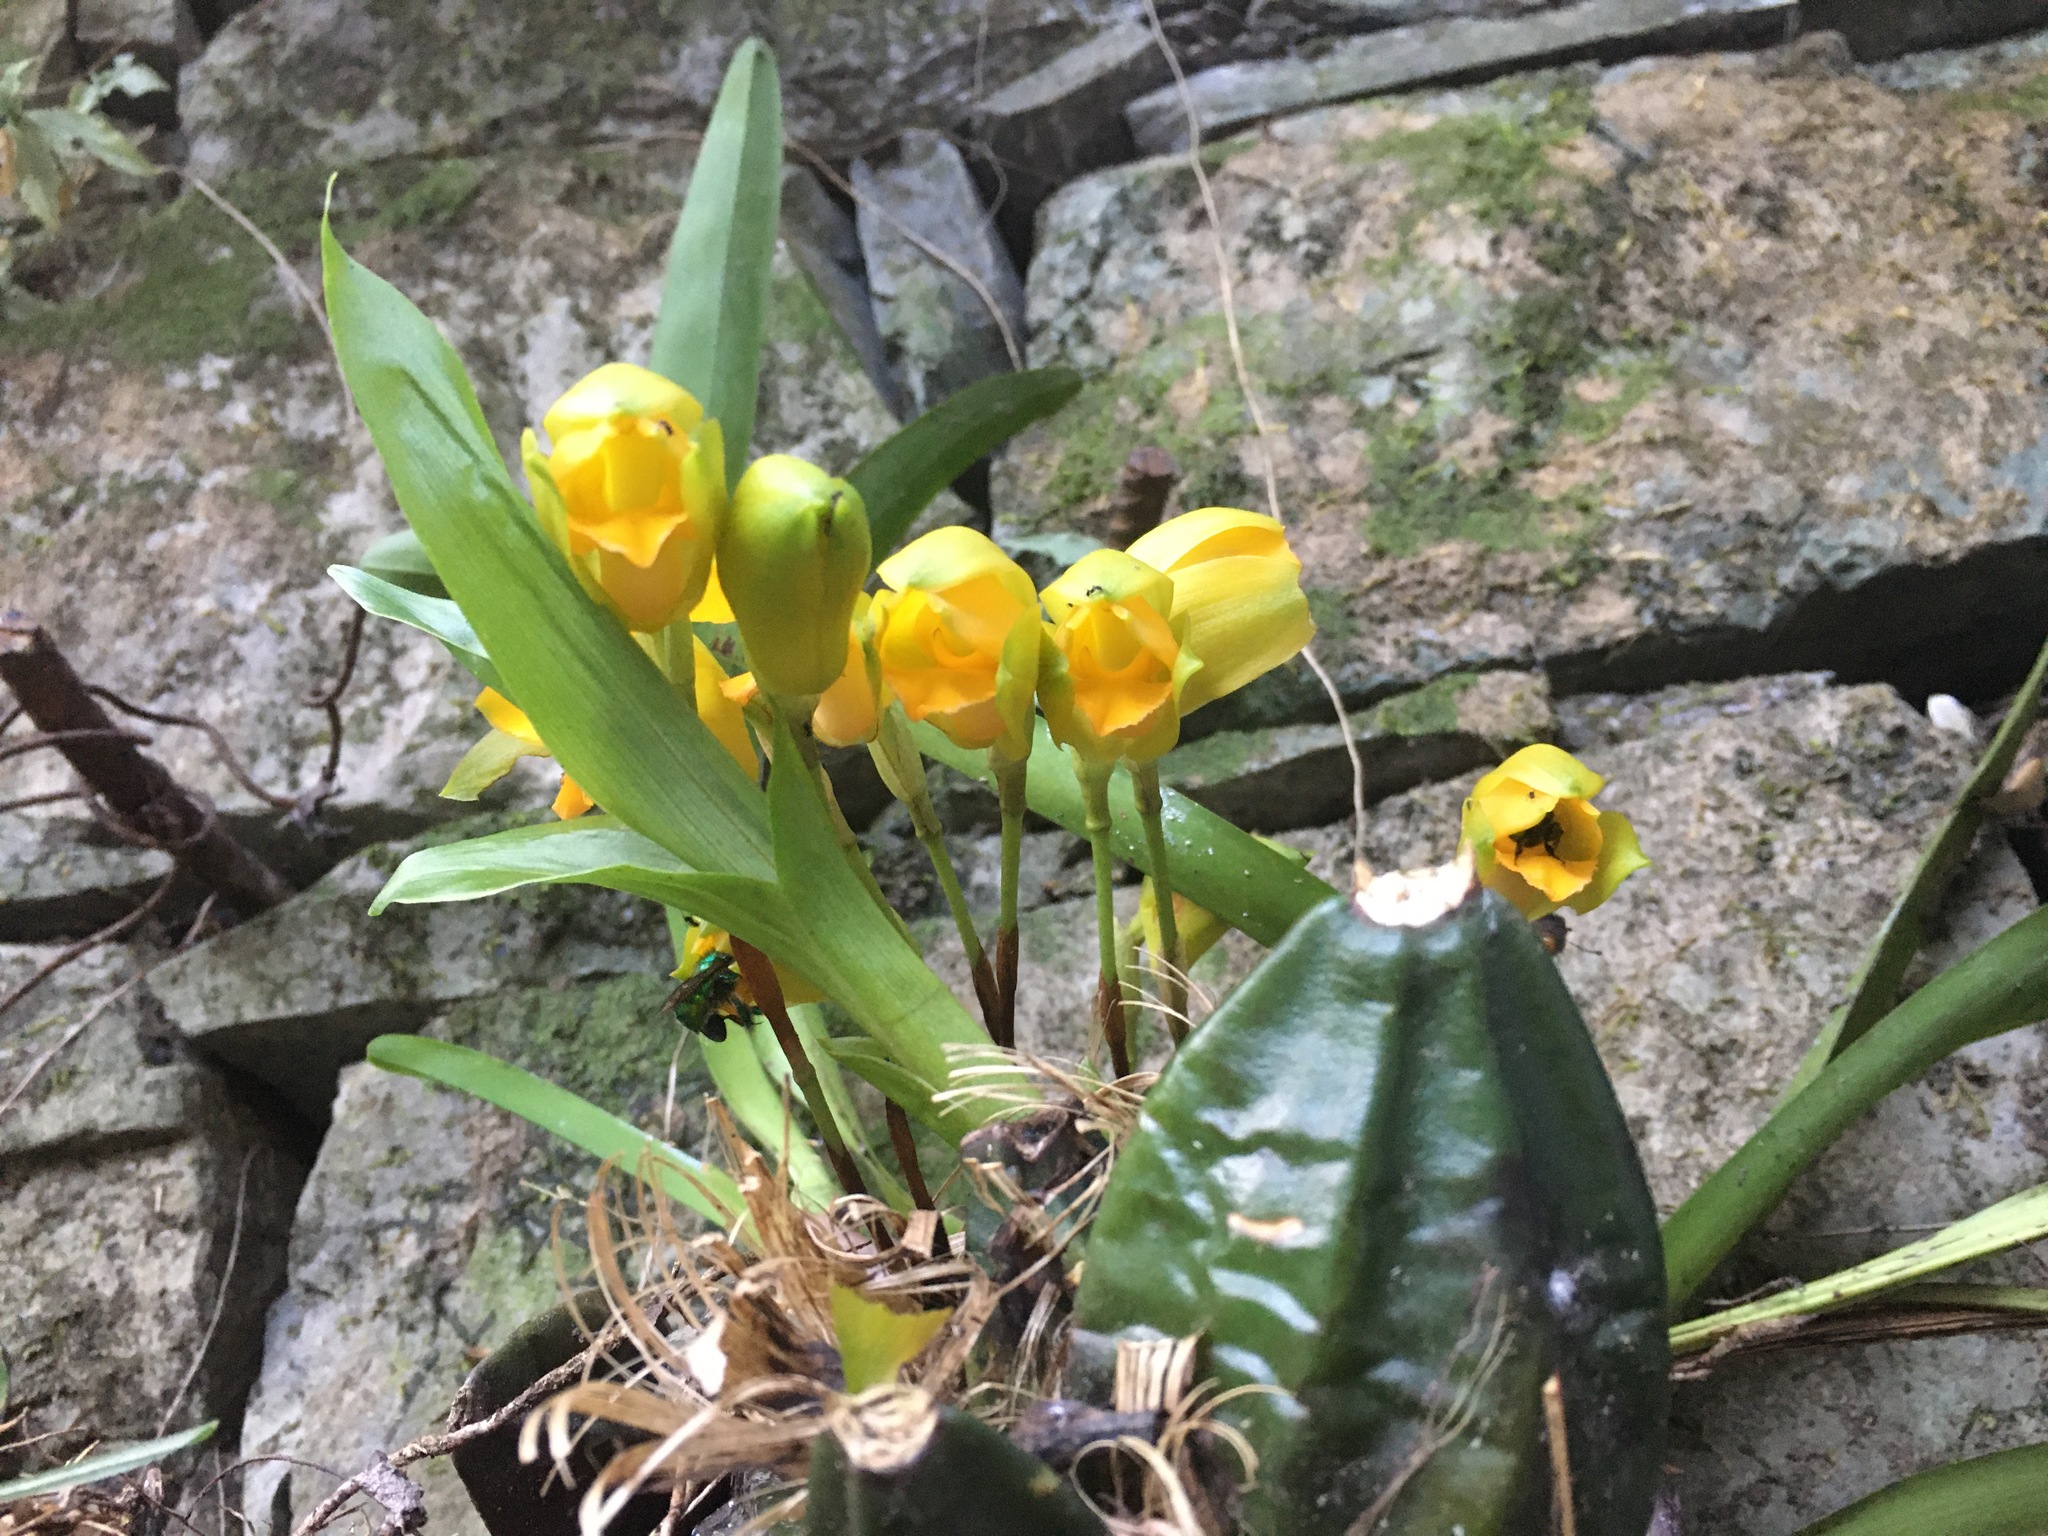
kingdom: Plantae
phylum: Tracheophyta
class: Liliopsida
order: Asparagales
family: Orchidaceae
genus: Lycaste
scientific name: Lycaste consobrina
